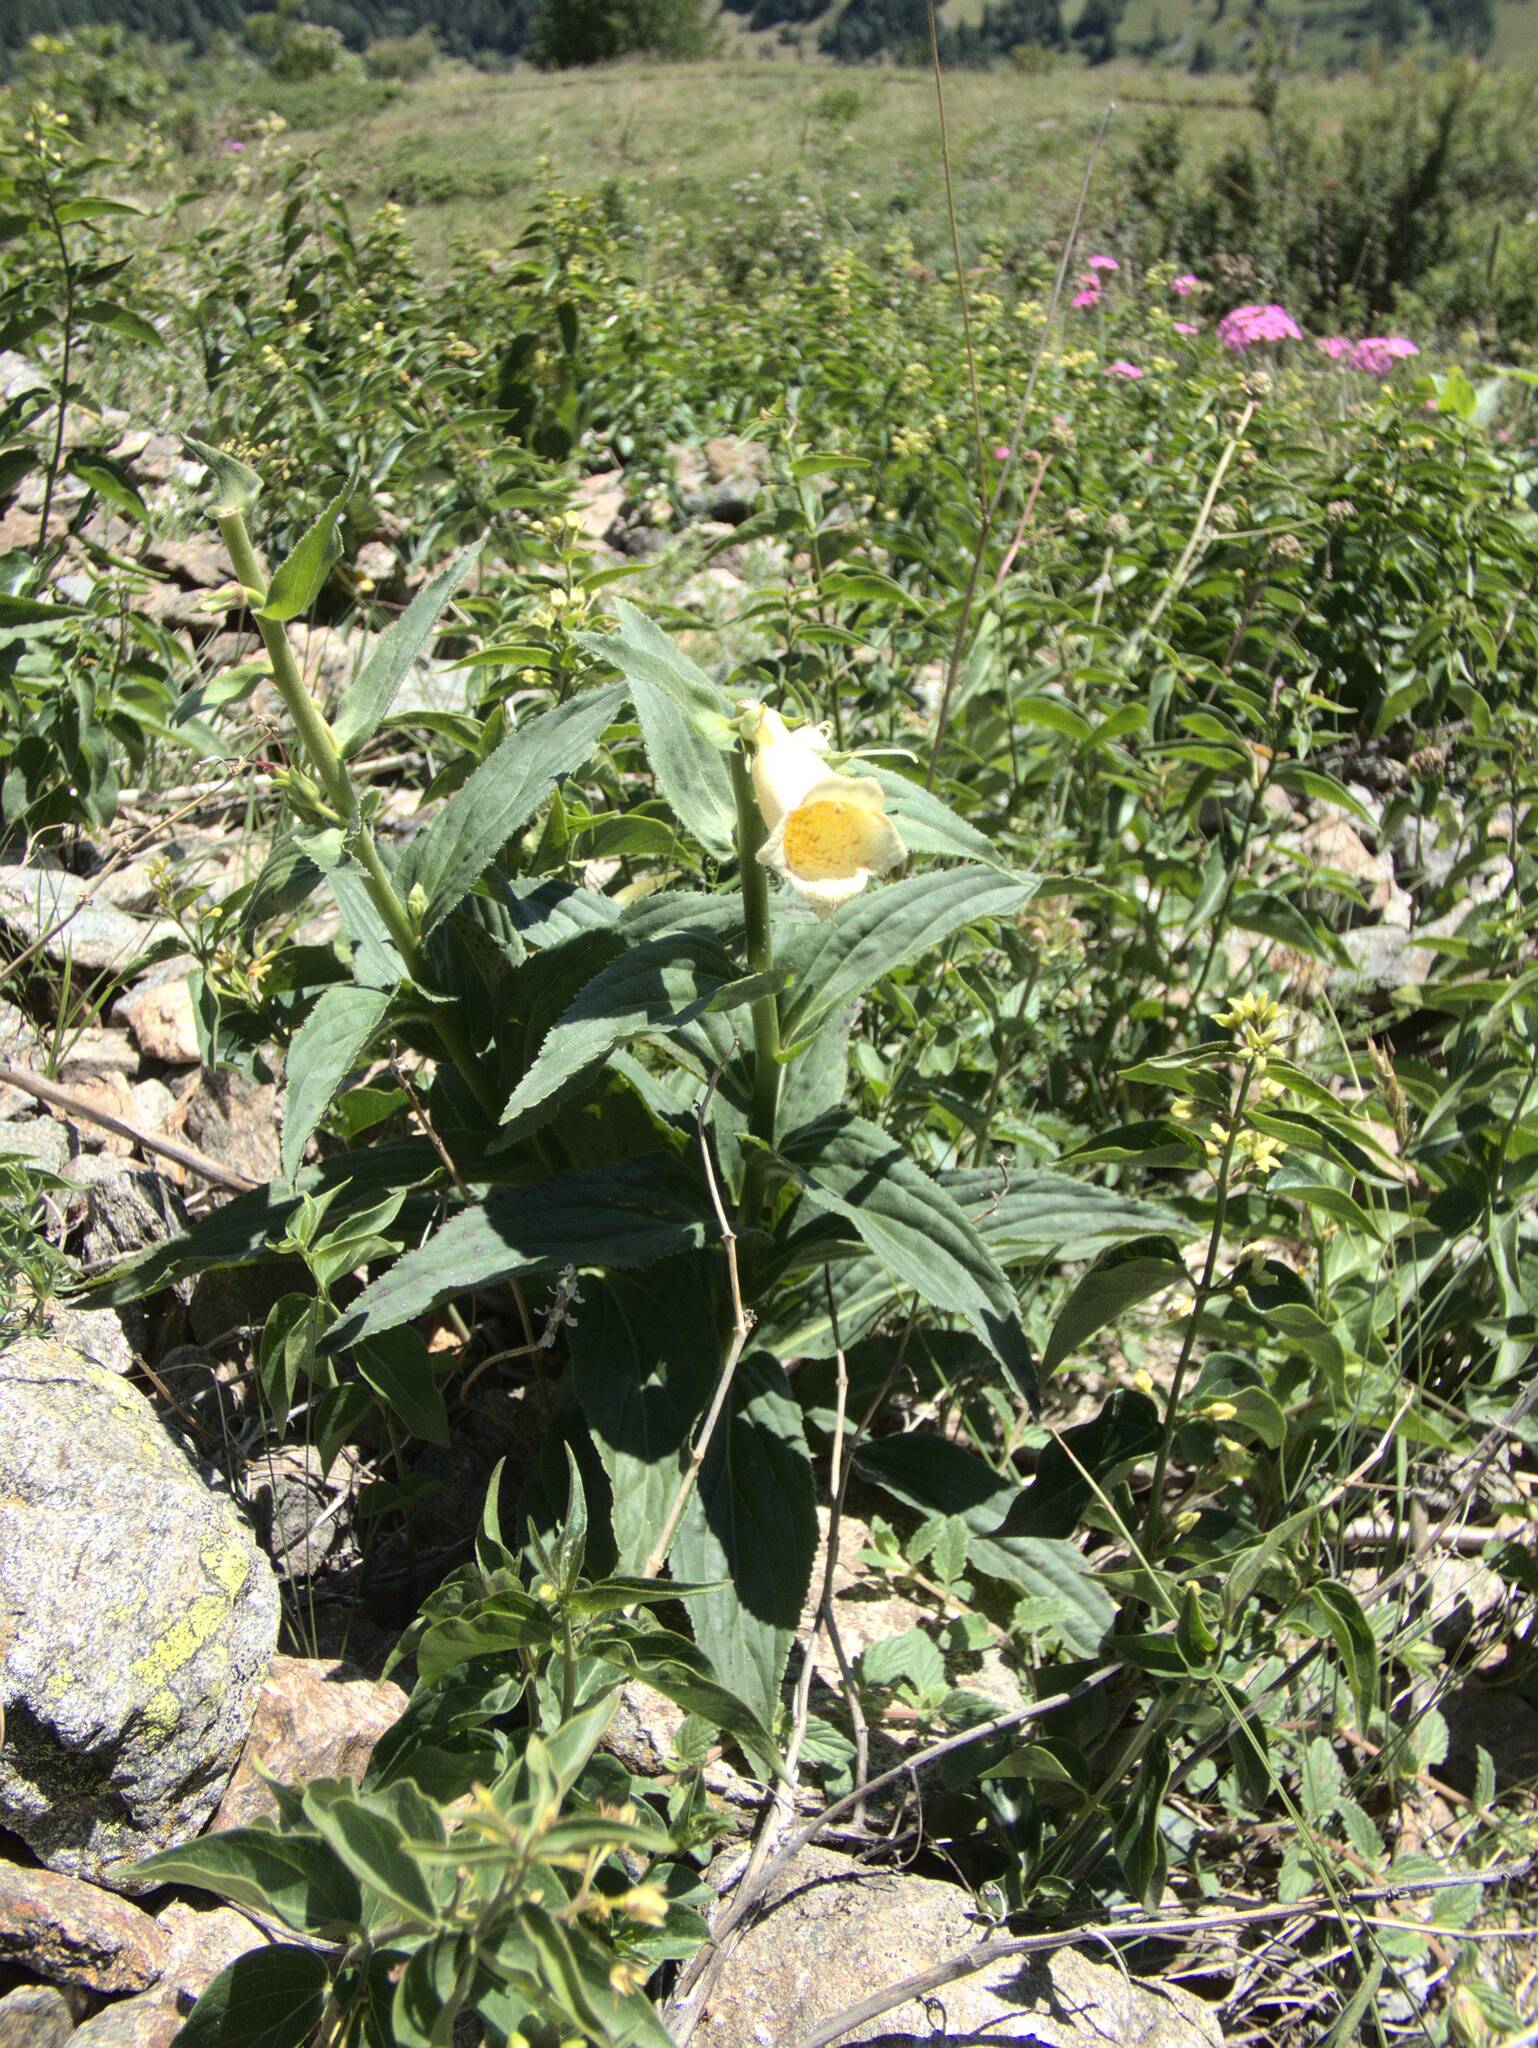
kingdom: Plantae
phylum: Tracheophyta
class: Magnoliopsida
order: Lamiales
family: Plantaginaceae
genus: Digitalis
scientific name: Digitalis grandiflora
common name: Yellow foxglove
